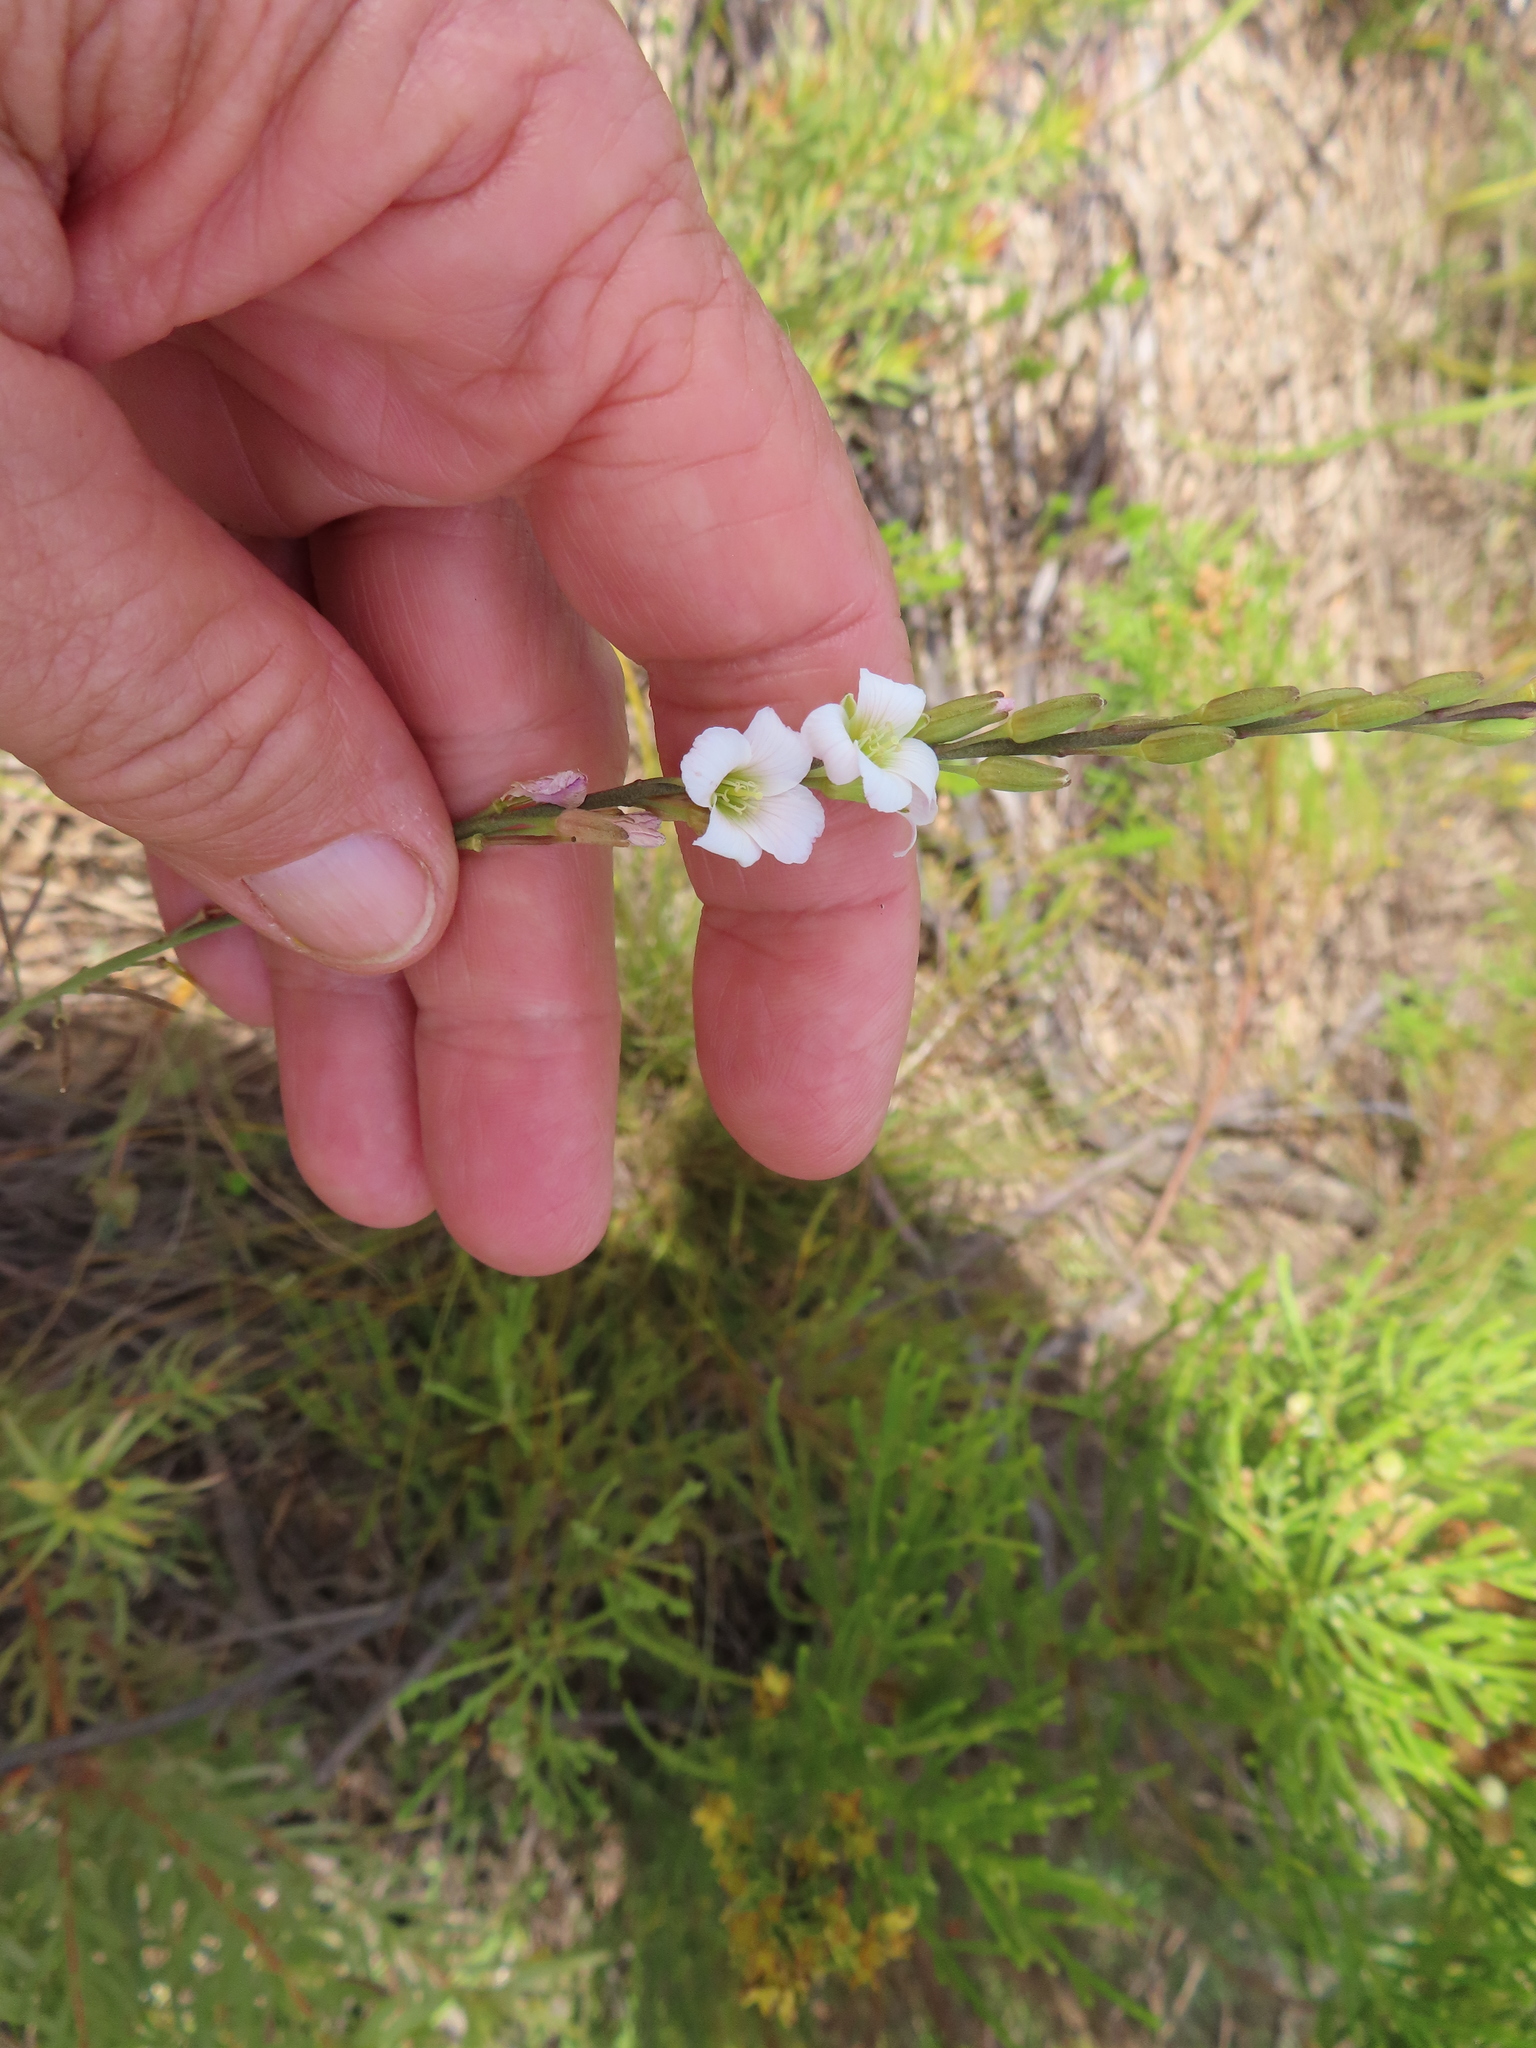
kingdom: Plantae
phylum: Tracheophyta
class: Magnoliopsida
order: Brassicales
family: Brassicaceae
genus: Heliophila
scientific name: Heliophila macra
